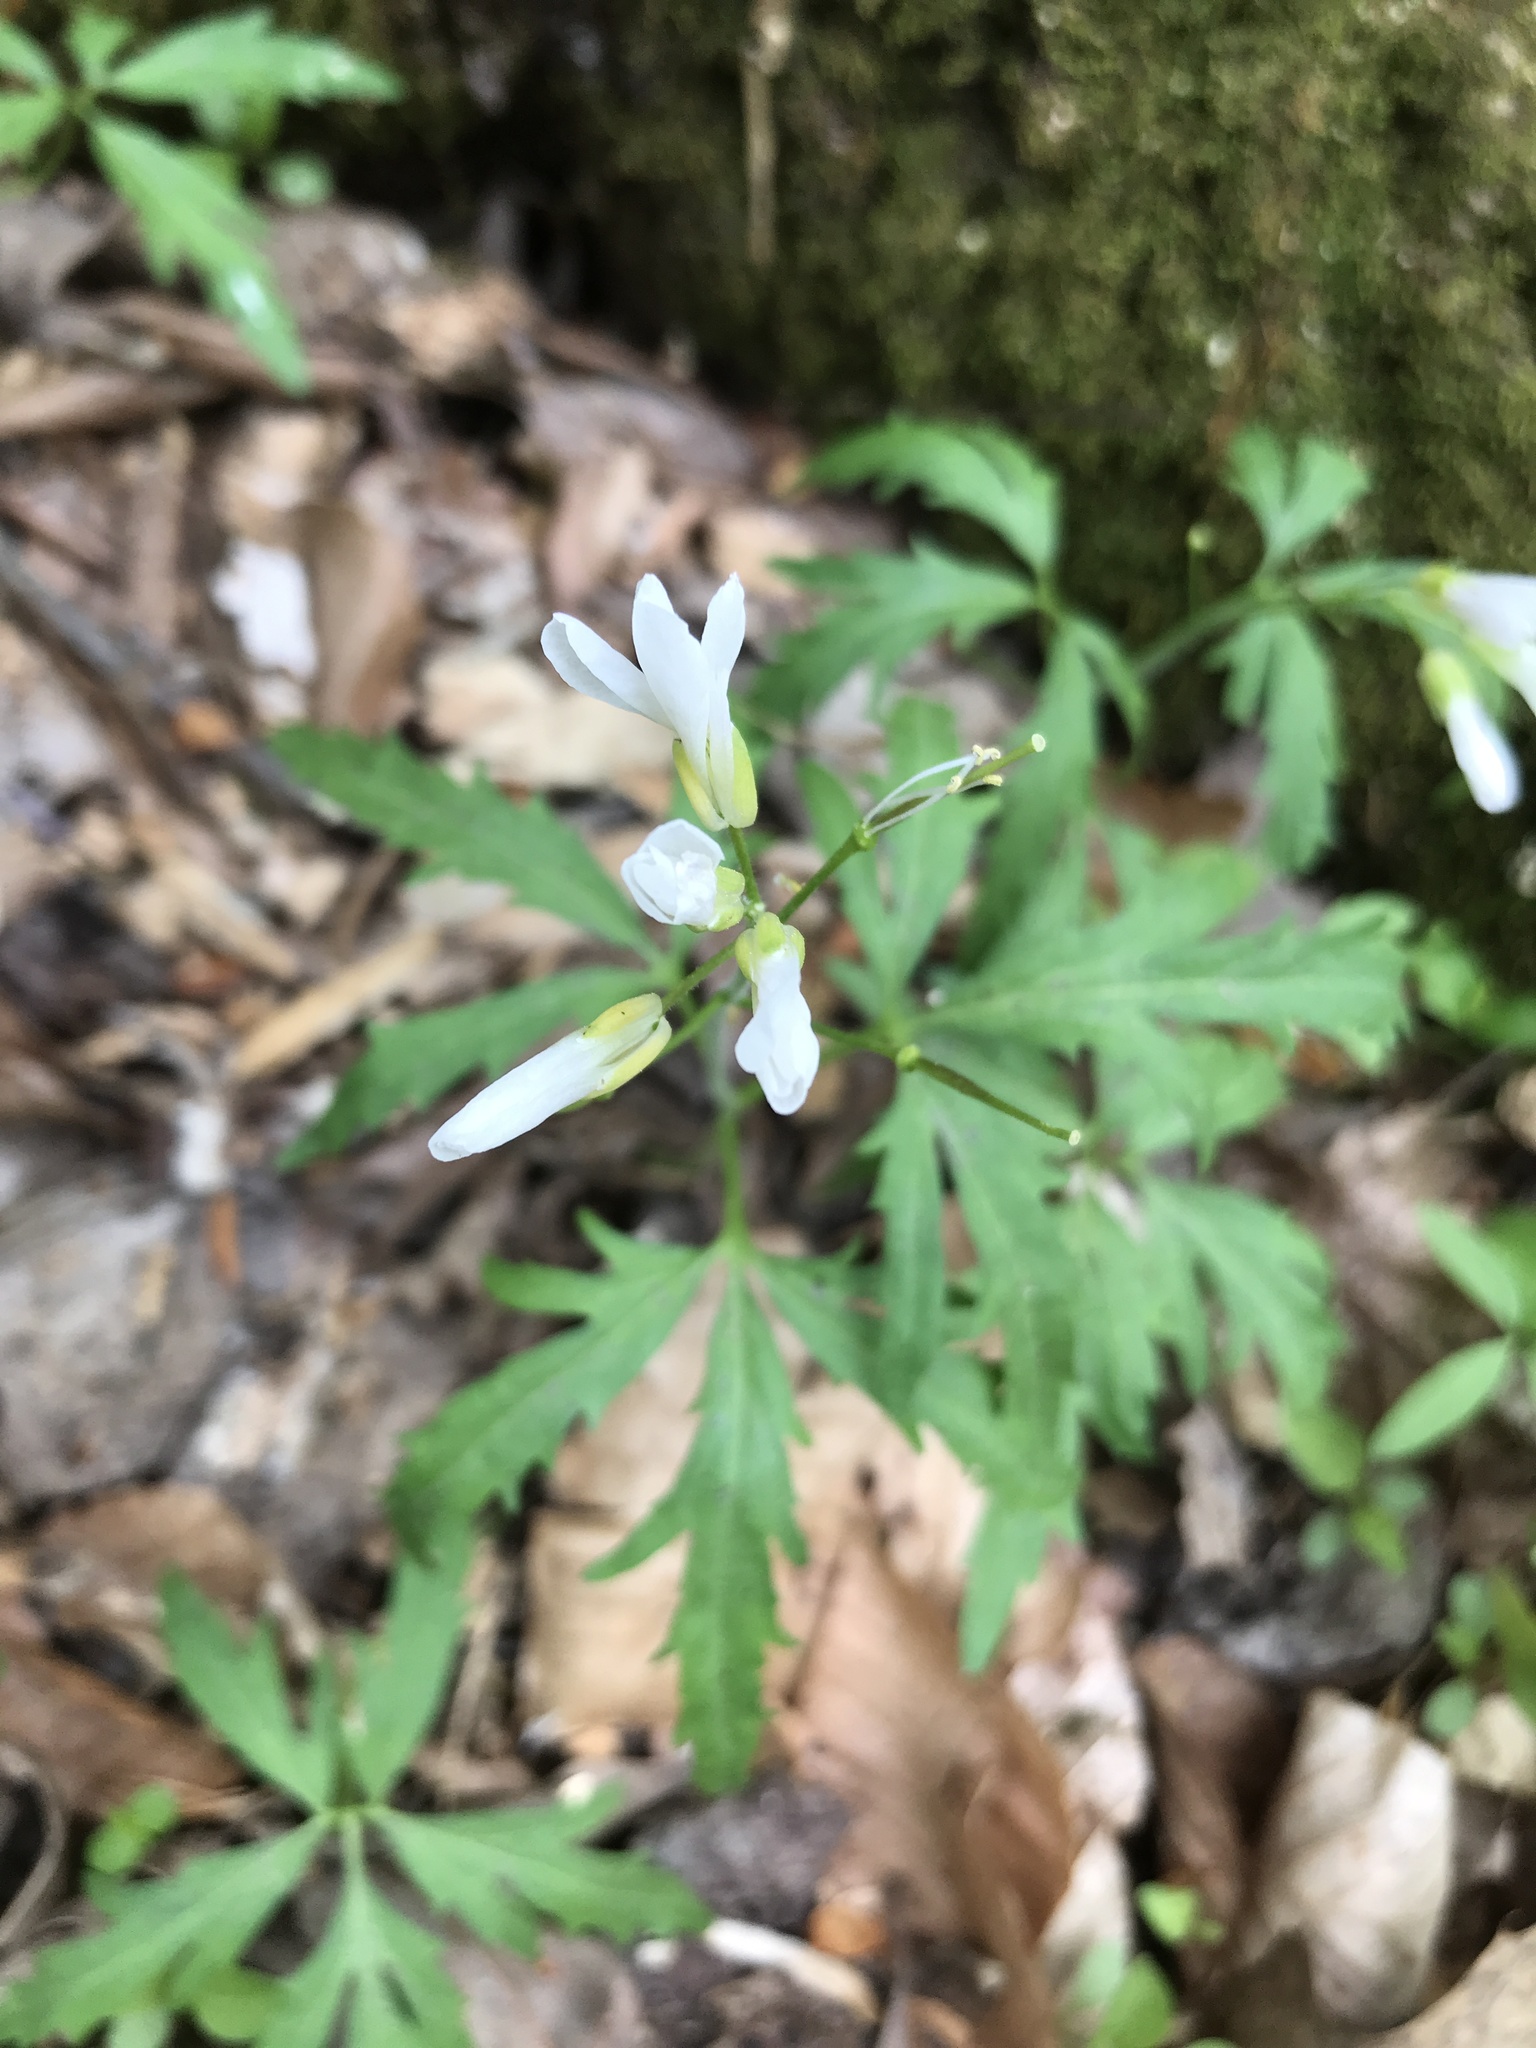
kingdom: Plantae
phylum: Tracheophyta
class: Magnoliopsida
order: Brassicales
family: Brassicaceae
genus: Cardamine
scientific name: Cardamine concatenata
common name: Cut-leaf toothcup
